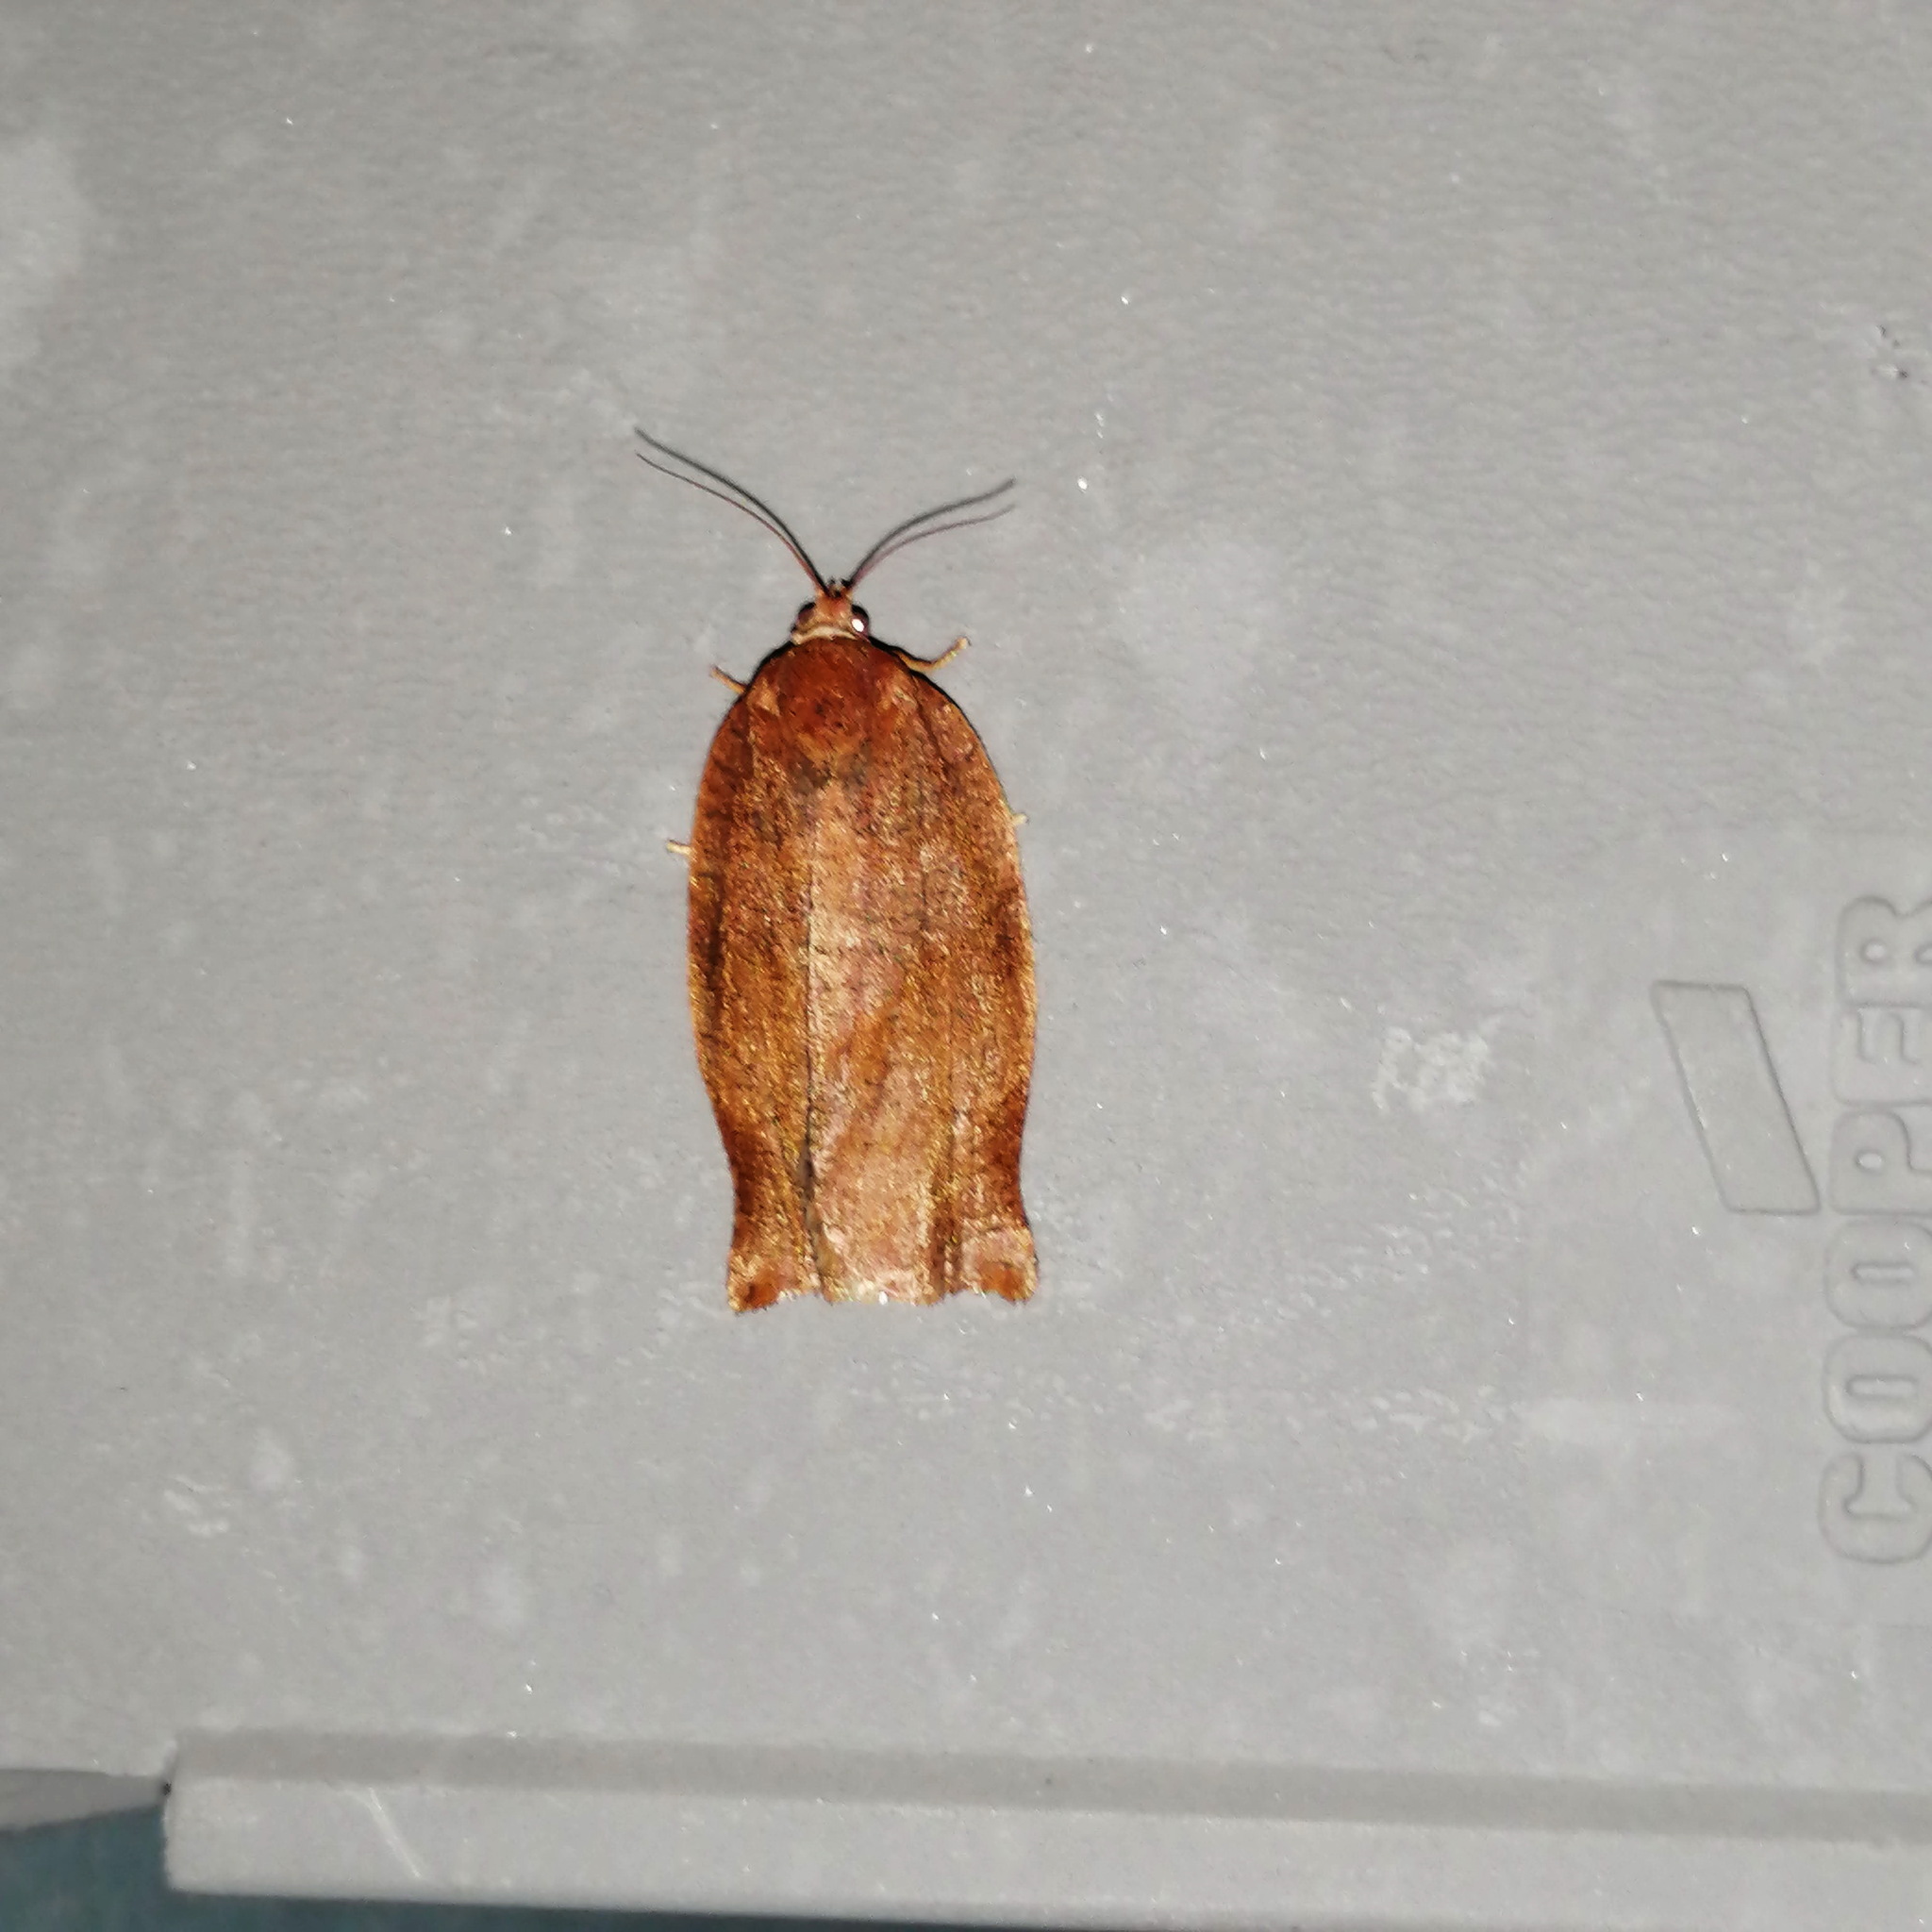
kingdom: Animalia
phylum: Arthropoda
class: Insecta
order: Lepidoptera
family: Tortricidae
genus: Choristoneura
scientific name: Choristoneura rosaceana
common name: Oblique-banded leafroller moth
